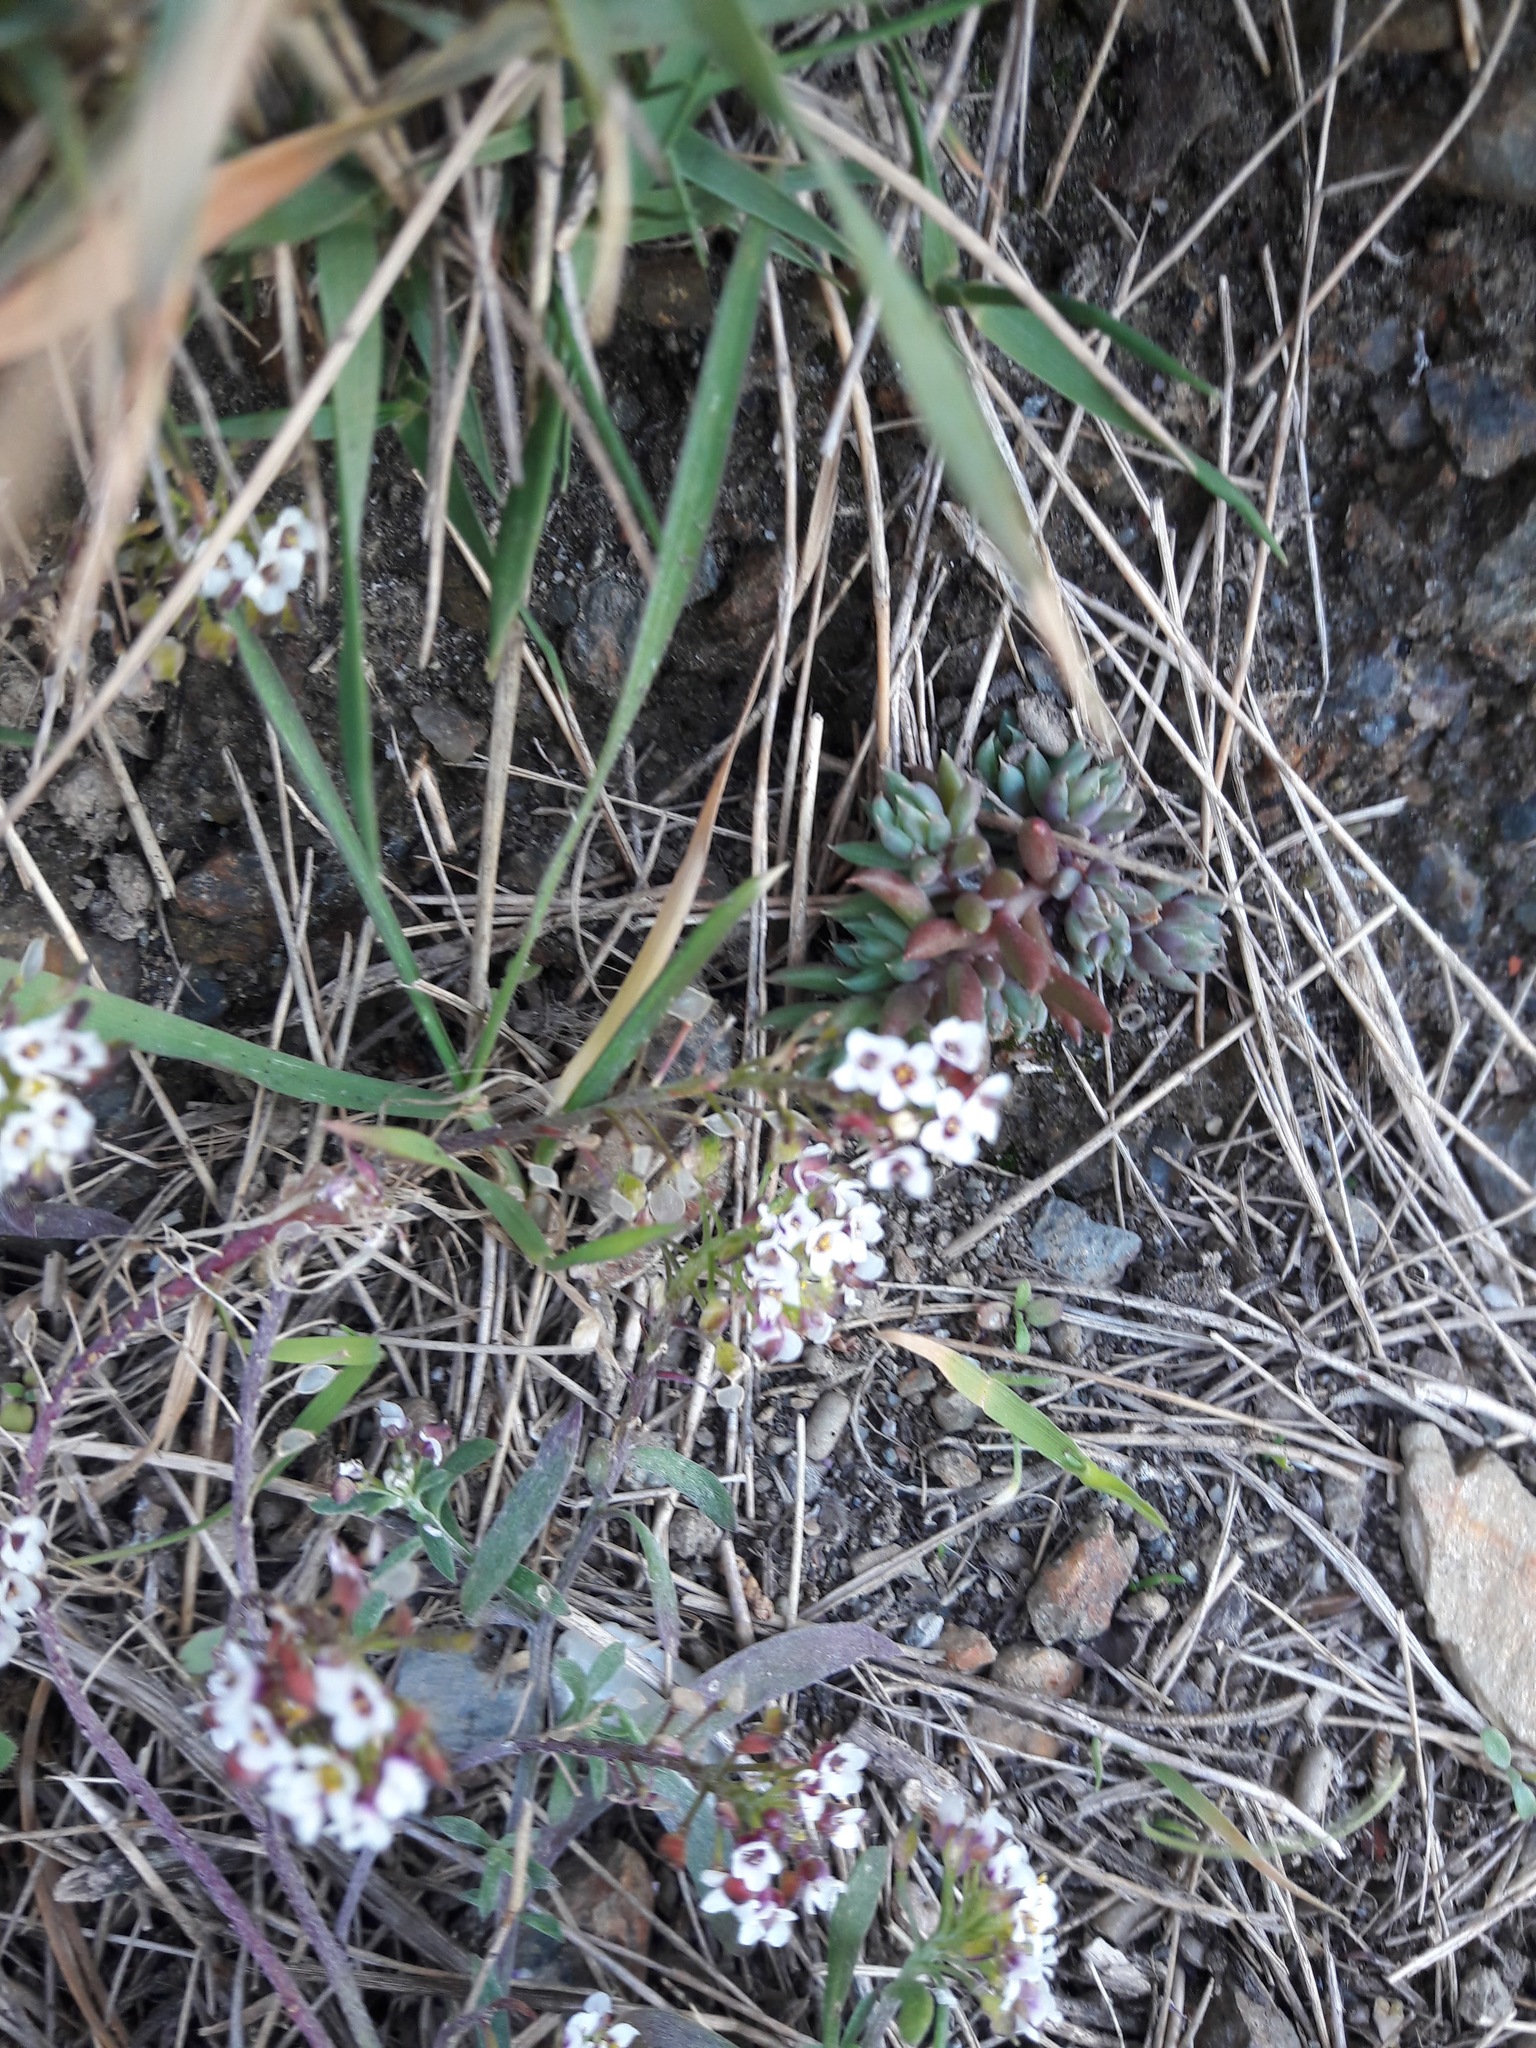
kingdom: Plantae
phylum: Tracheophyta
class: Magnoliopsida
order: Brassicales
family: Brassicaceae
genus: Lobularia
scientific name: Lobularia maritima
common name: Sweet alison
